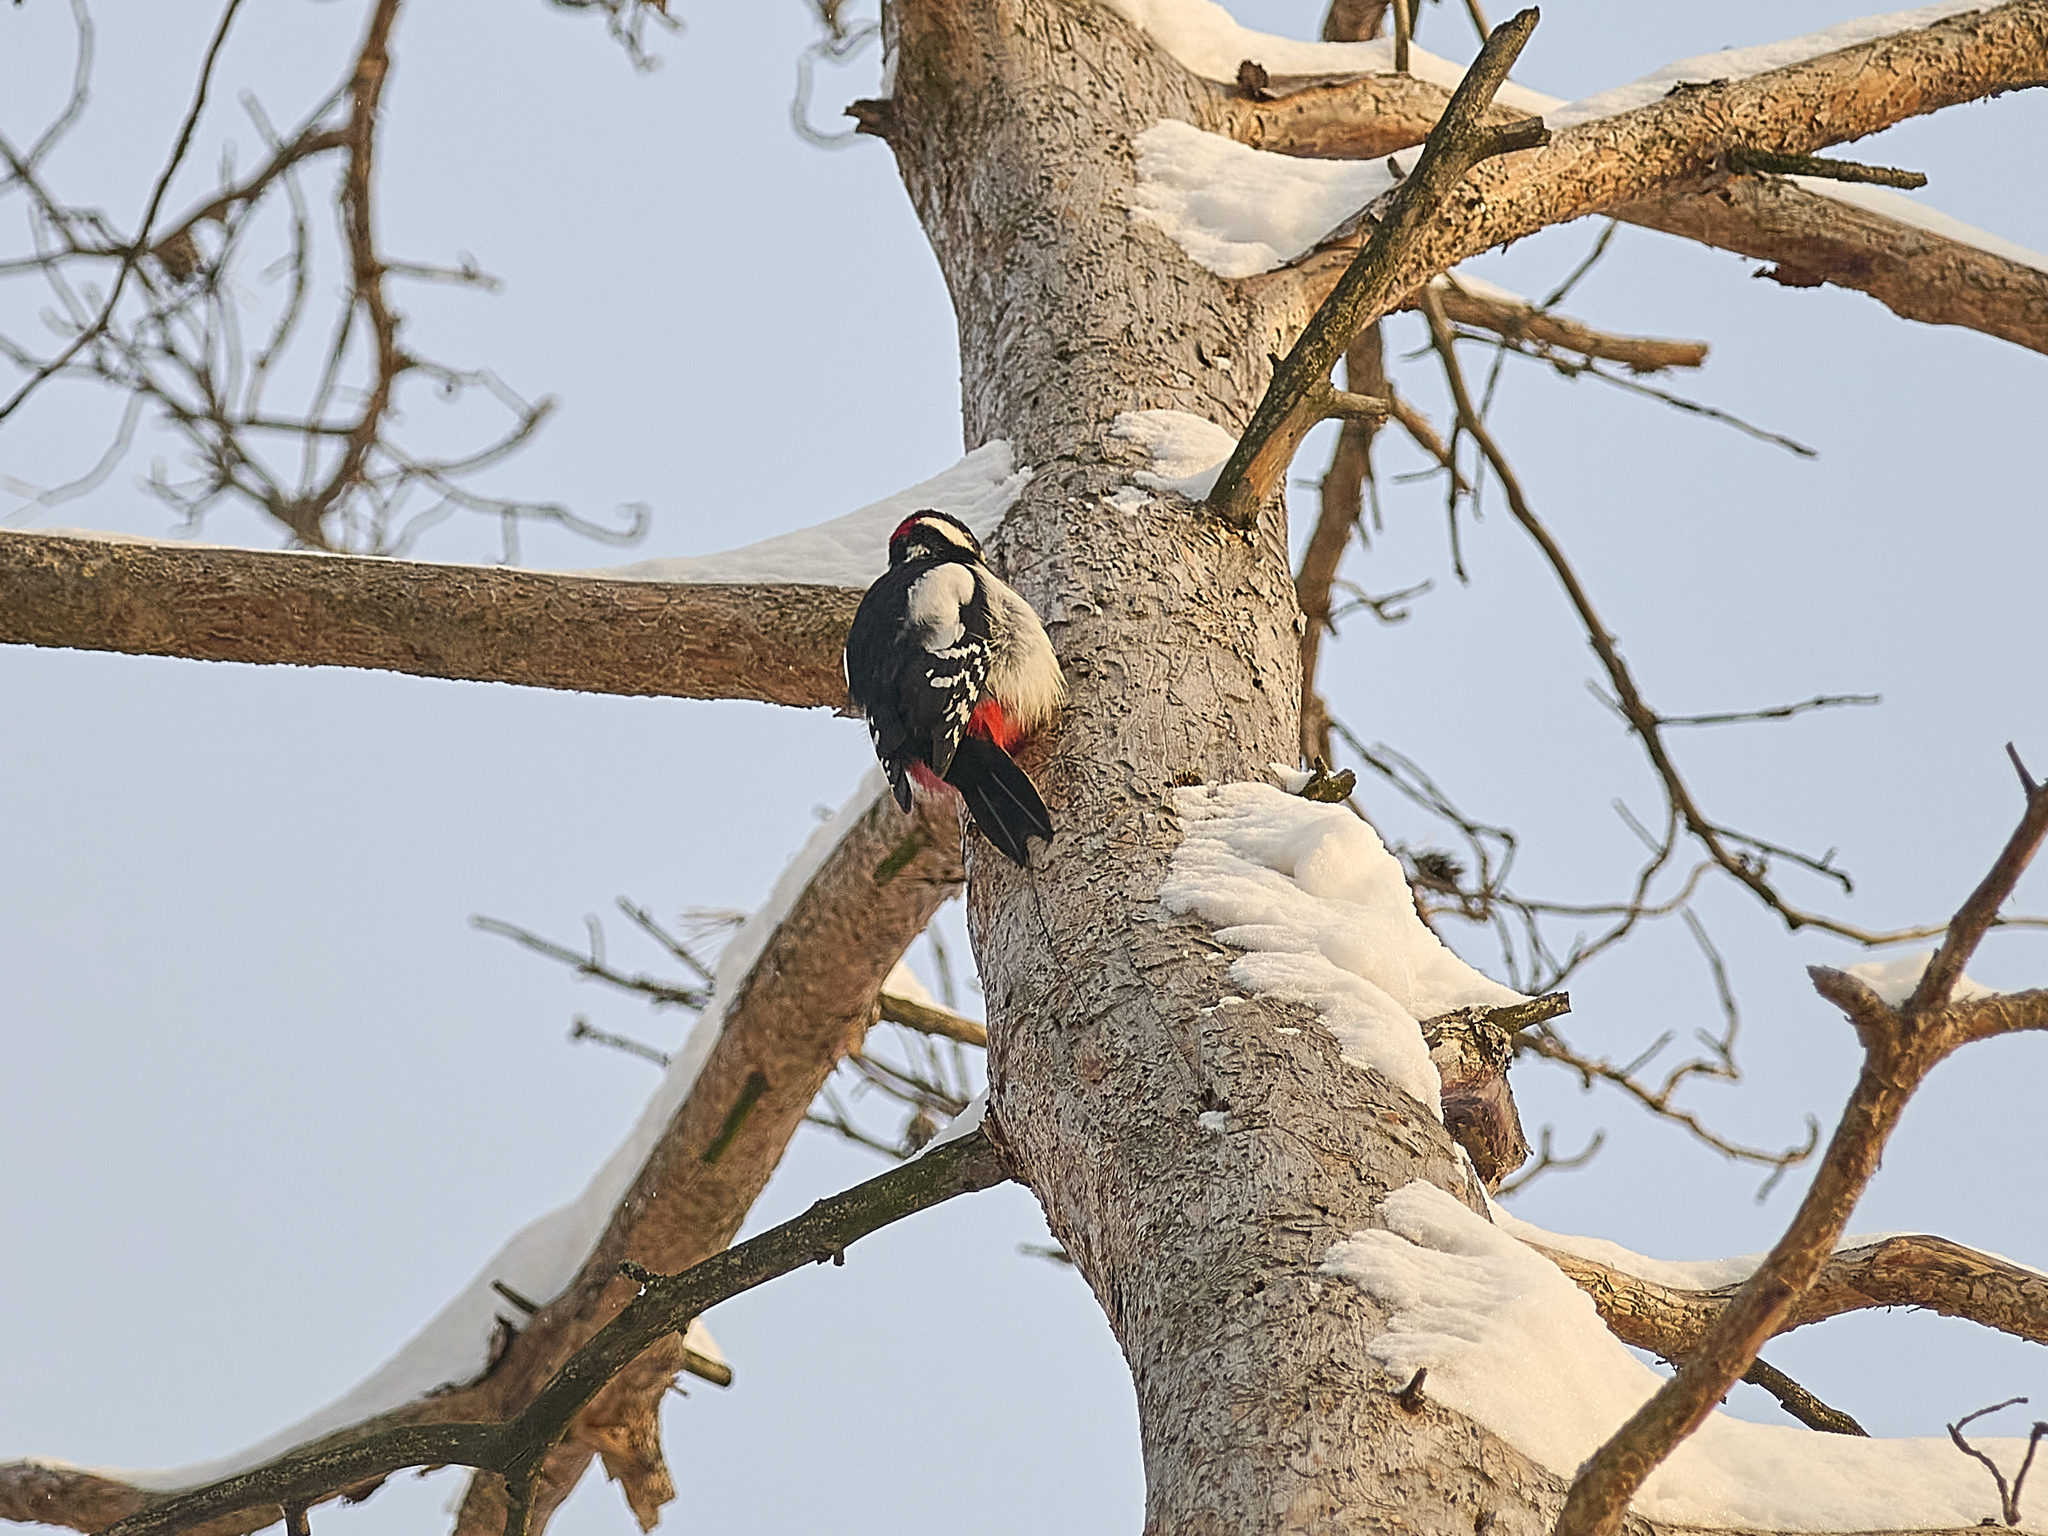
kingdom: Animalia
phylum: Chordata
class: Aves
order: Piciformes
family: Picidae
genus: Dendrocopos
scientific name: Dendrocopos major
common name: Great spotted woodpecker
